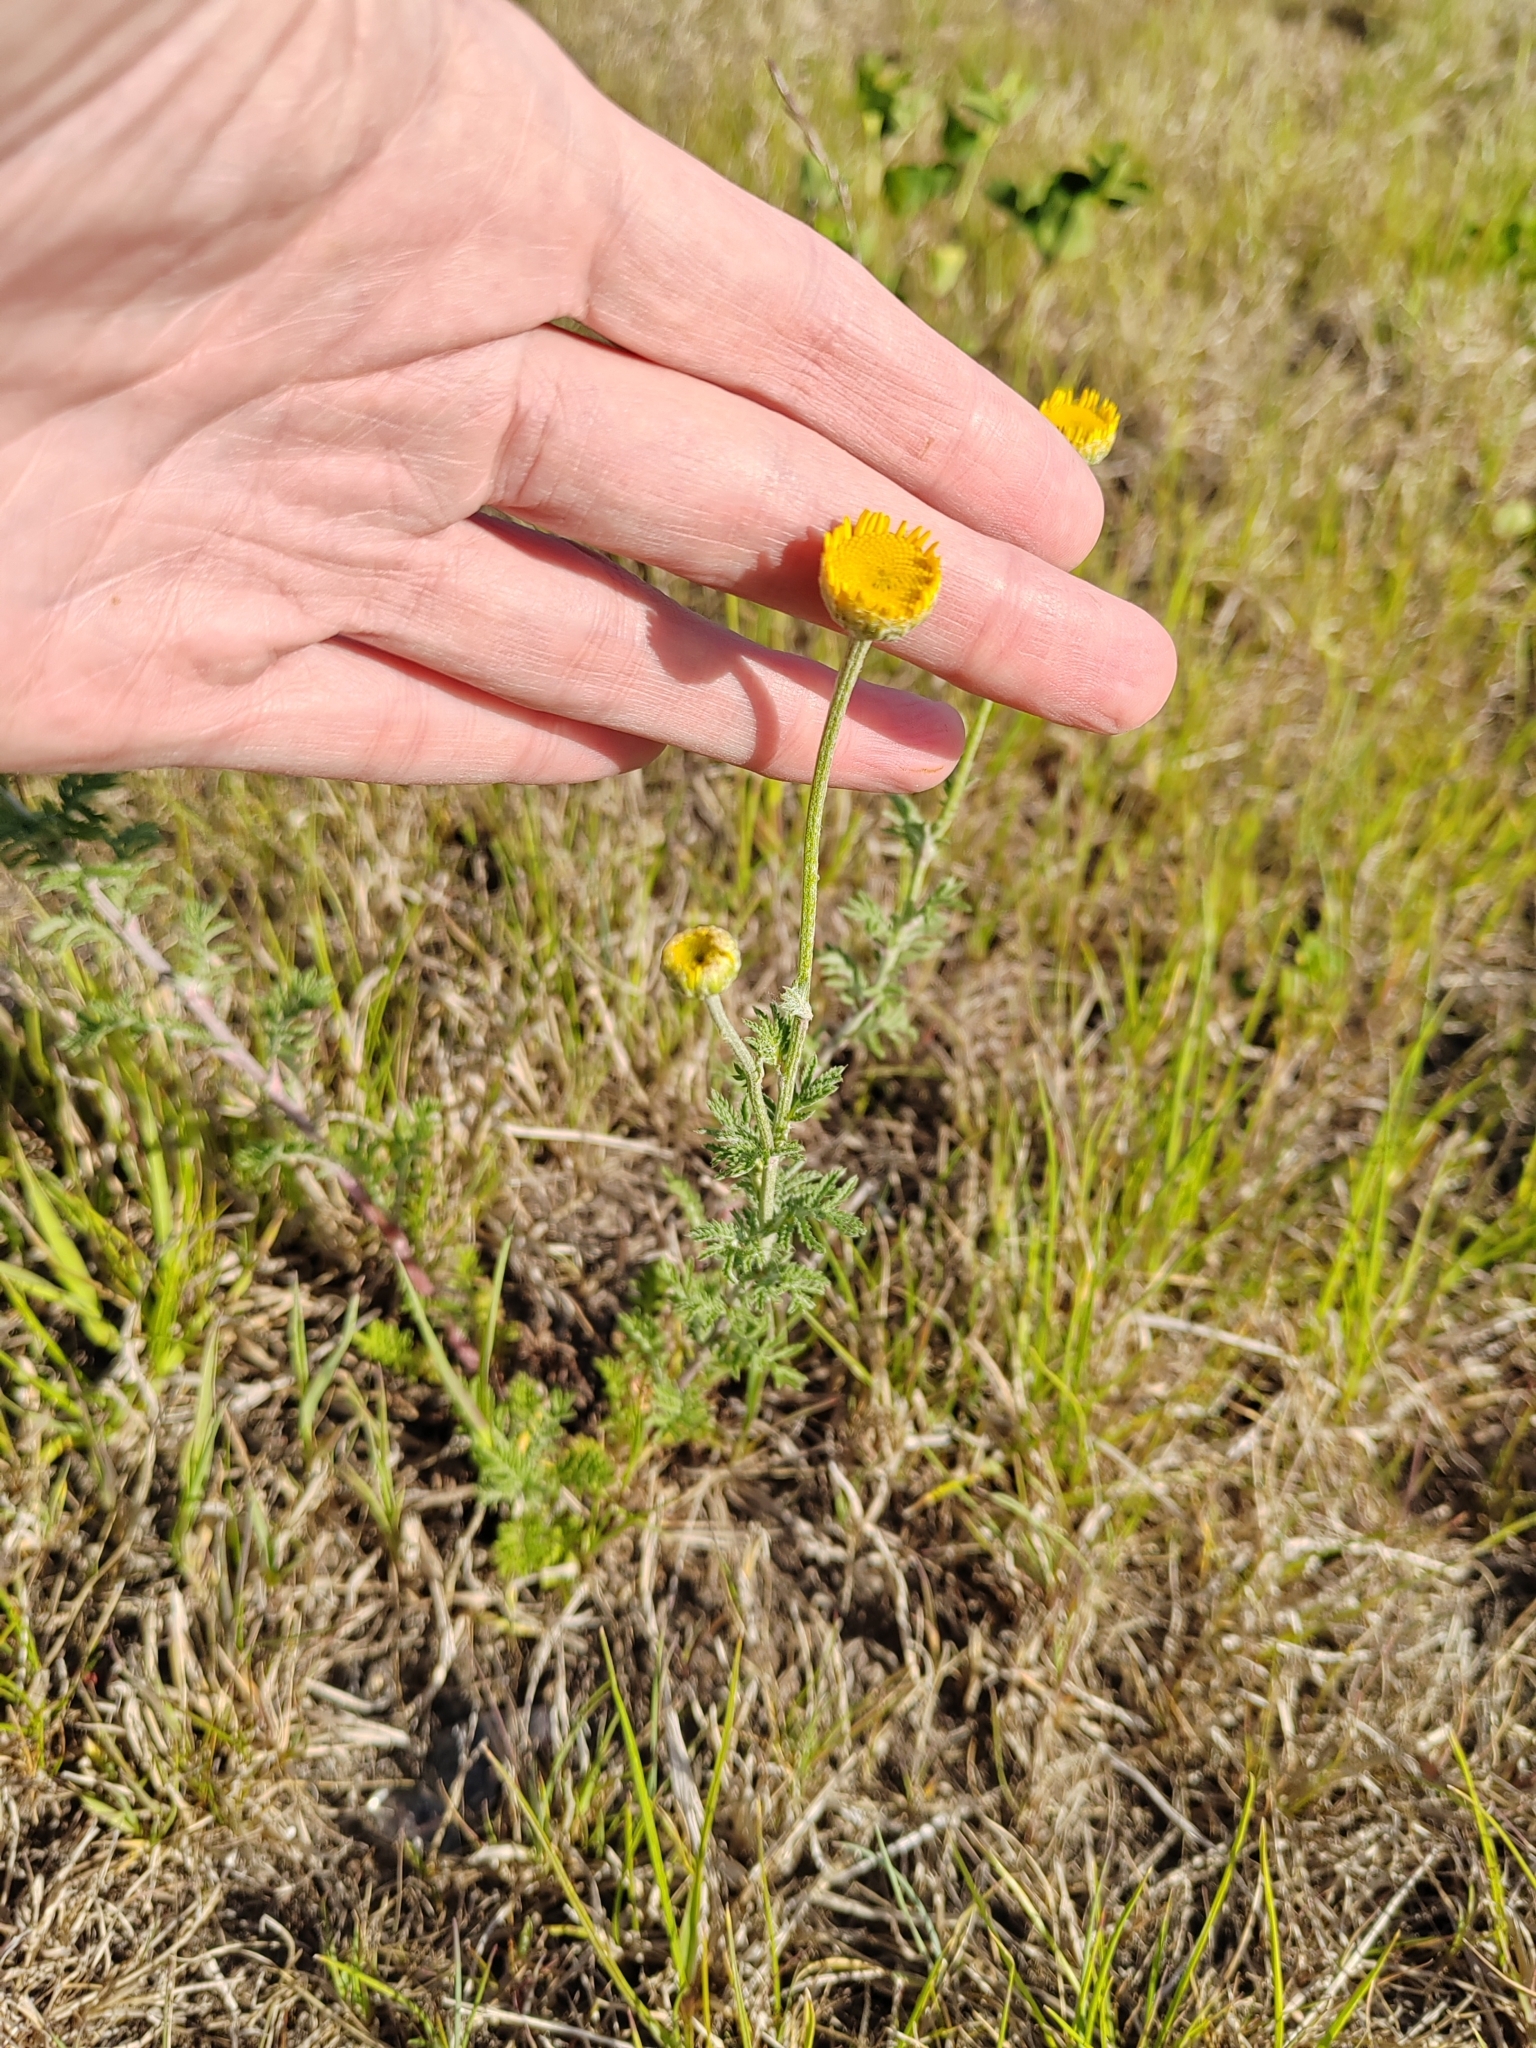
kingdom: Plantae
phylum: Tracheophyta
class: Magnoliopsida
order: Asterales
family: Asteraceae
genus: Cota
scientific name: Cota tinctoria
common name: Golden chamomile
